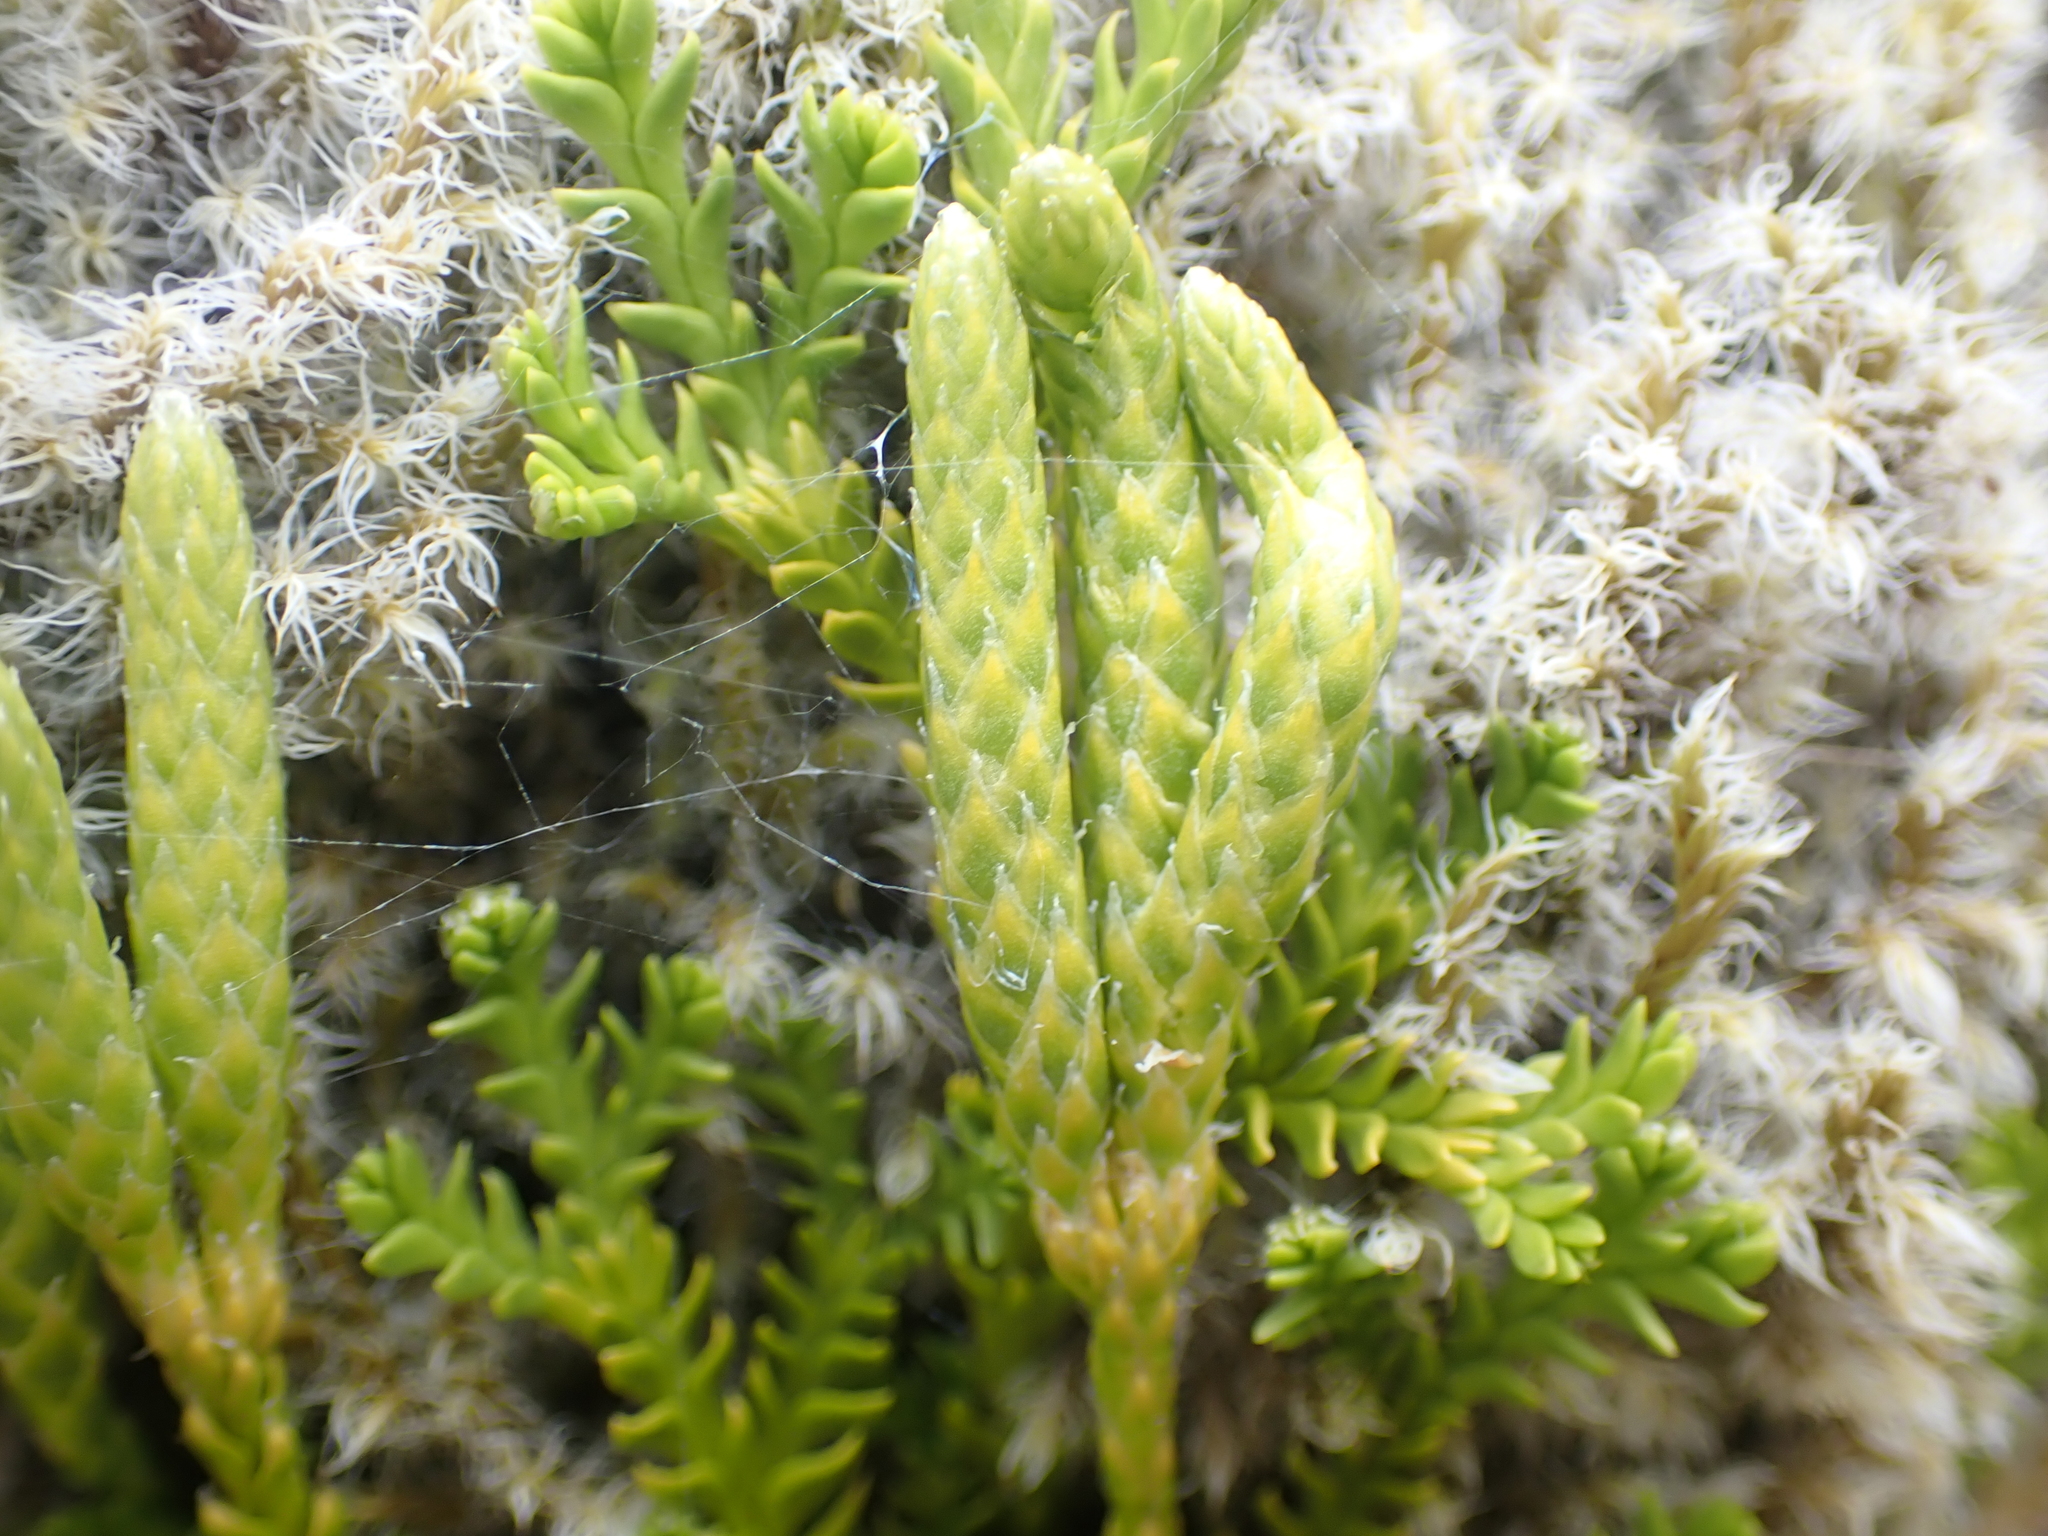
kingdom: Plantae
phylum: Tracheophyta
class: Lycopodiopsida
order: Lycopodiales
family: Lycopodiaceae
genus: Diphasium
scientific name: Diphasium scariosum
